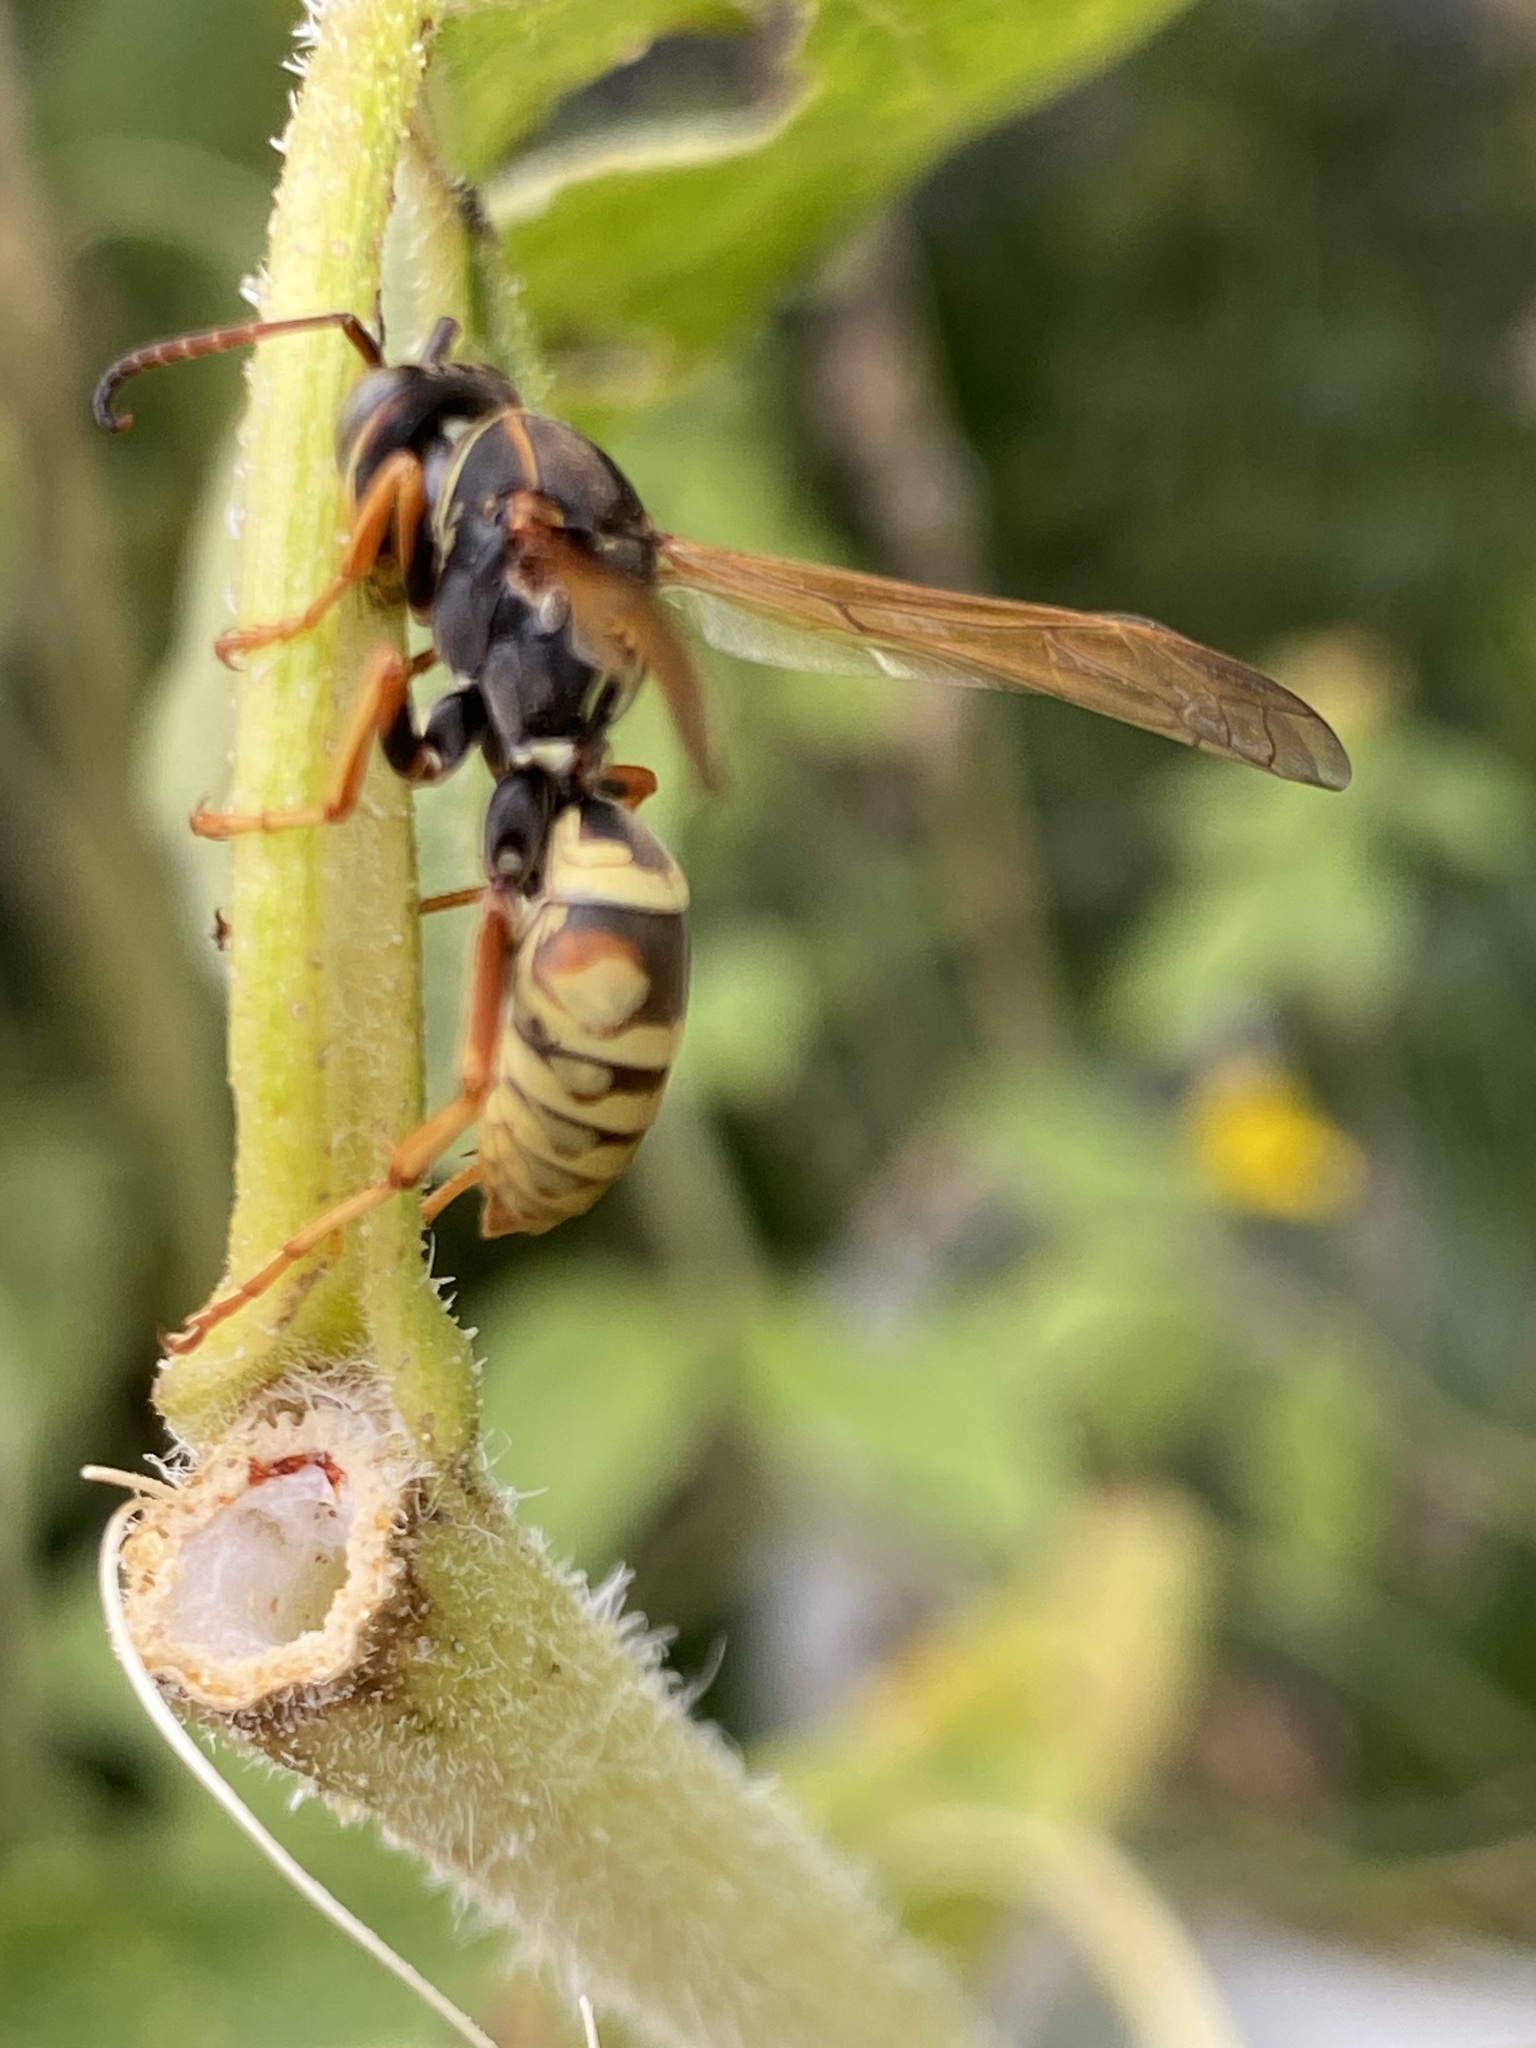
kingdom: Animalia
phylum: Arthropoda
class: Insecta
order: Hymenoptera
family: Eumenidae
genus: Polistes
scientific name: Polistes aurifer
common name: Paper wasp
